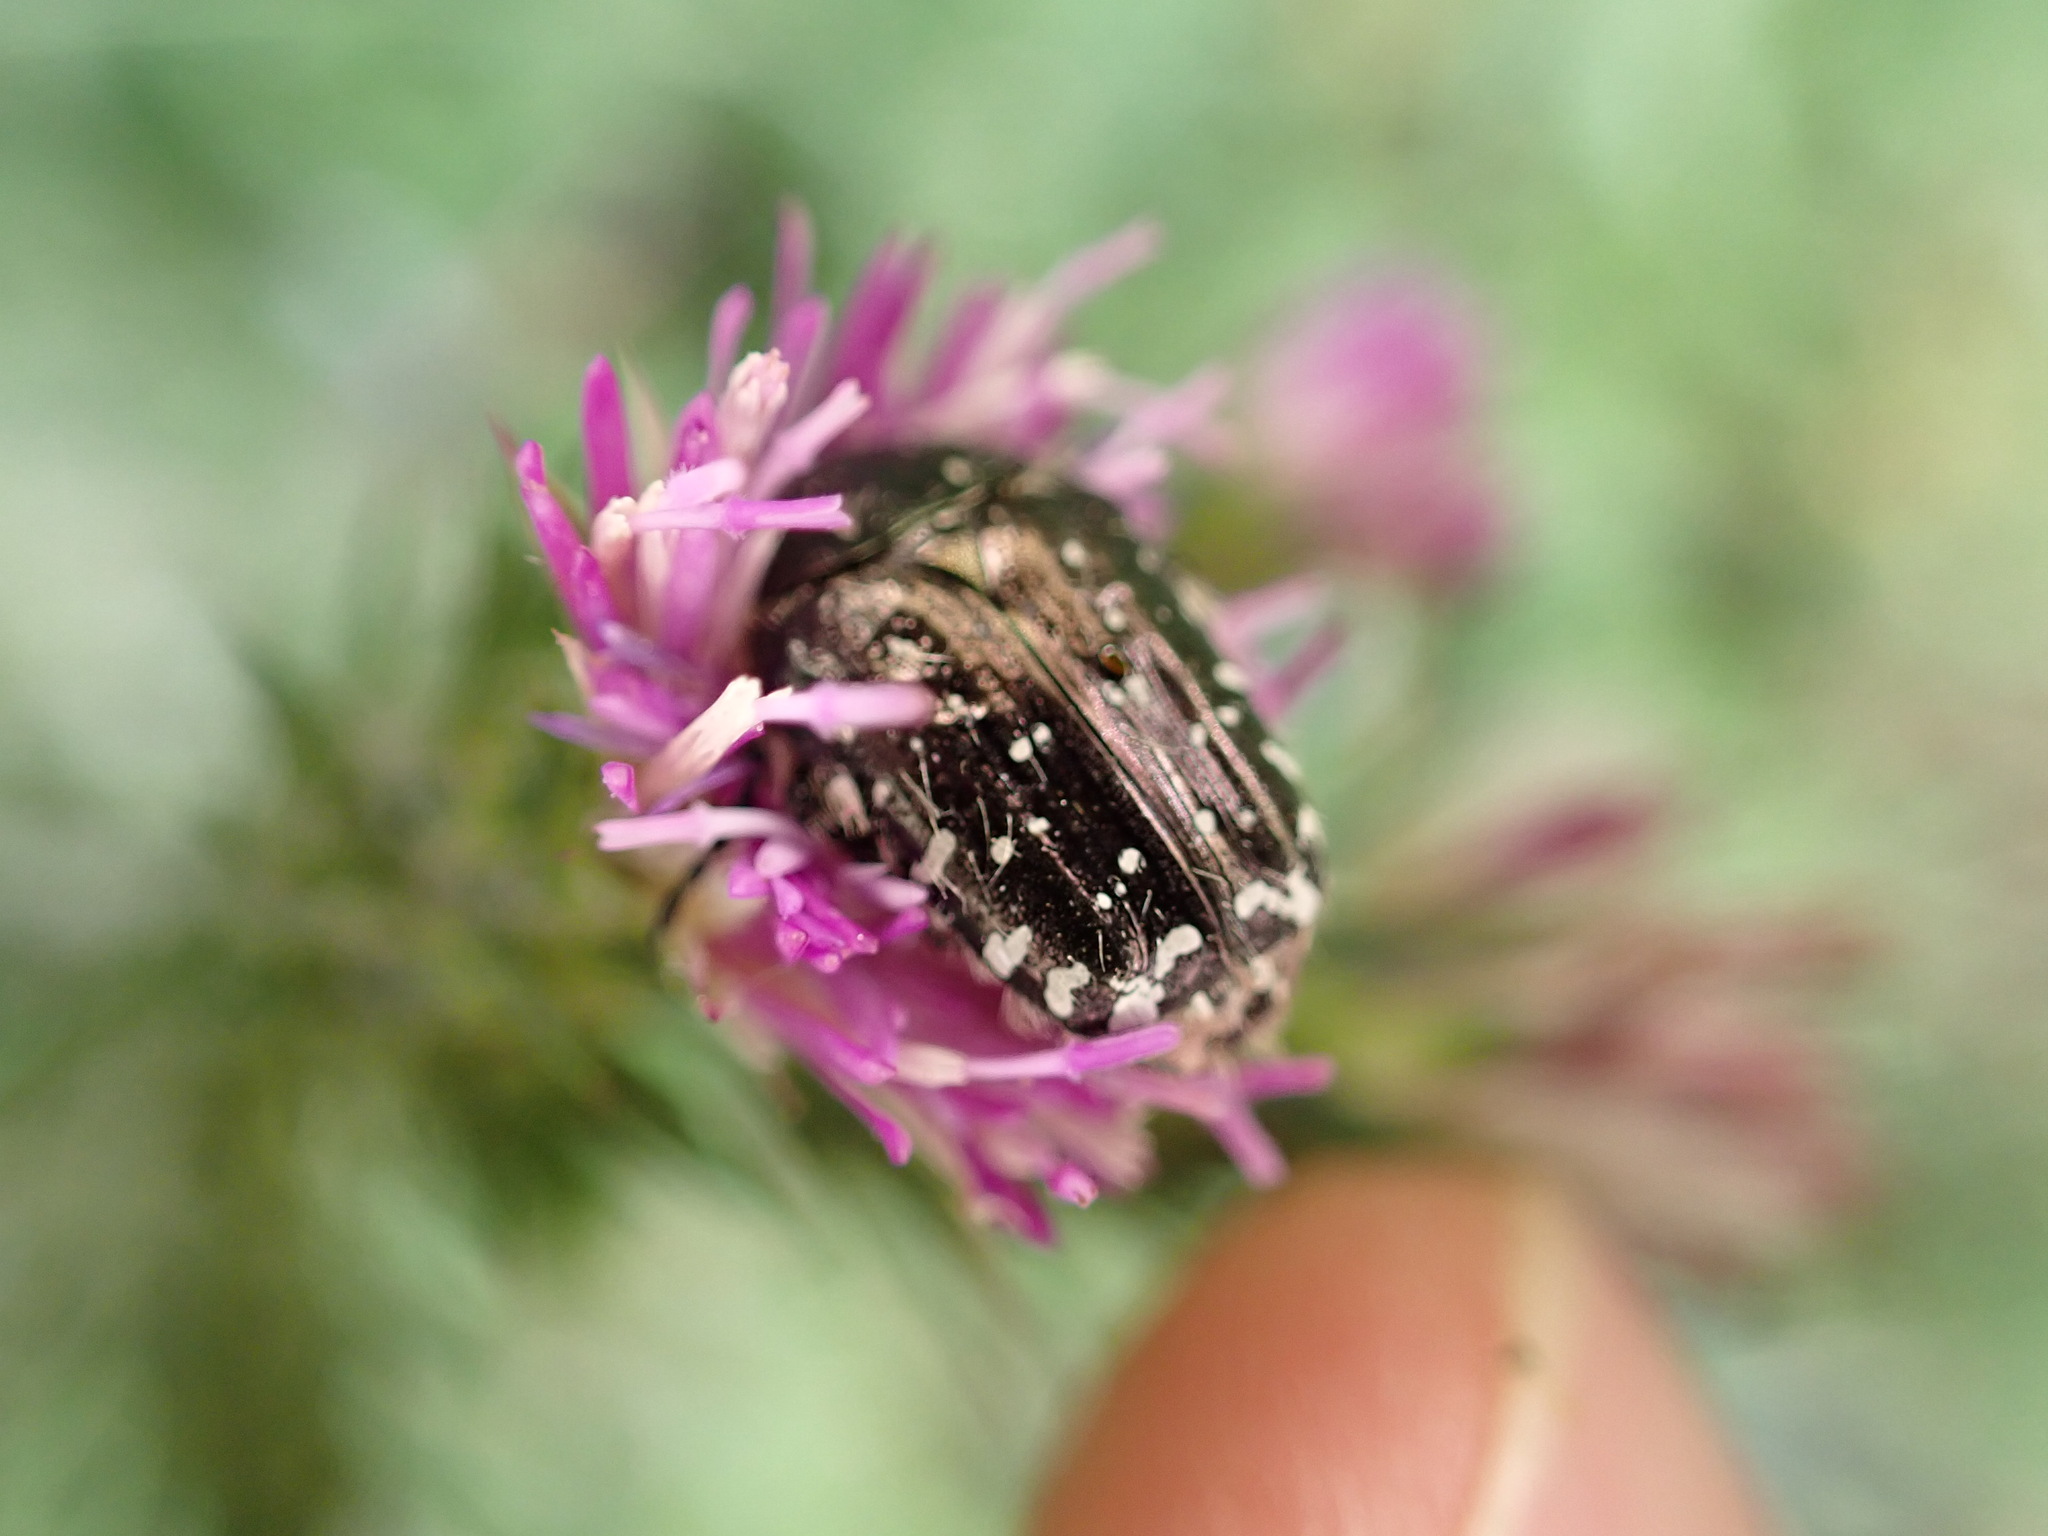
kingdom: Animalia
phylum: Arthropoda
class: Insecta
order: Coleoptera
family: Scarabaeidae
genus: Oxythyrea
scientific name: Oxythyrea funesta
